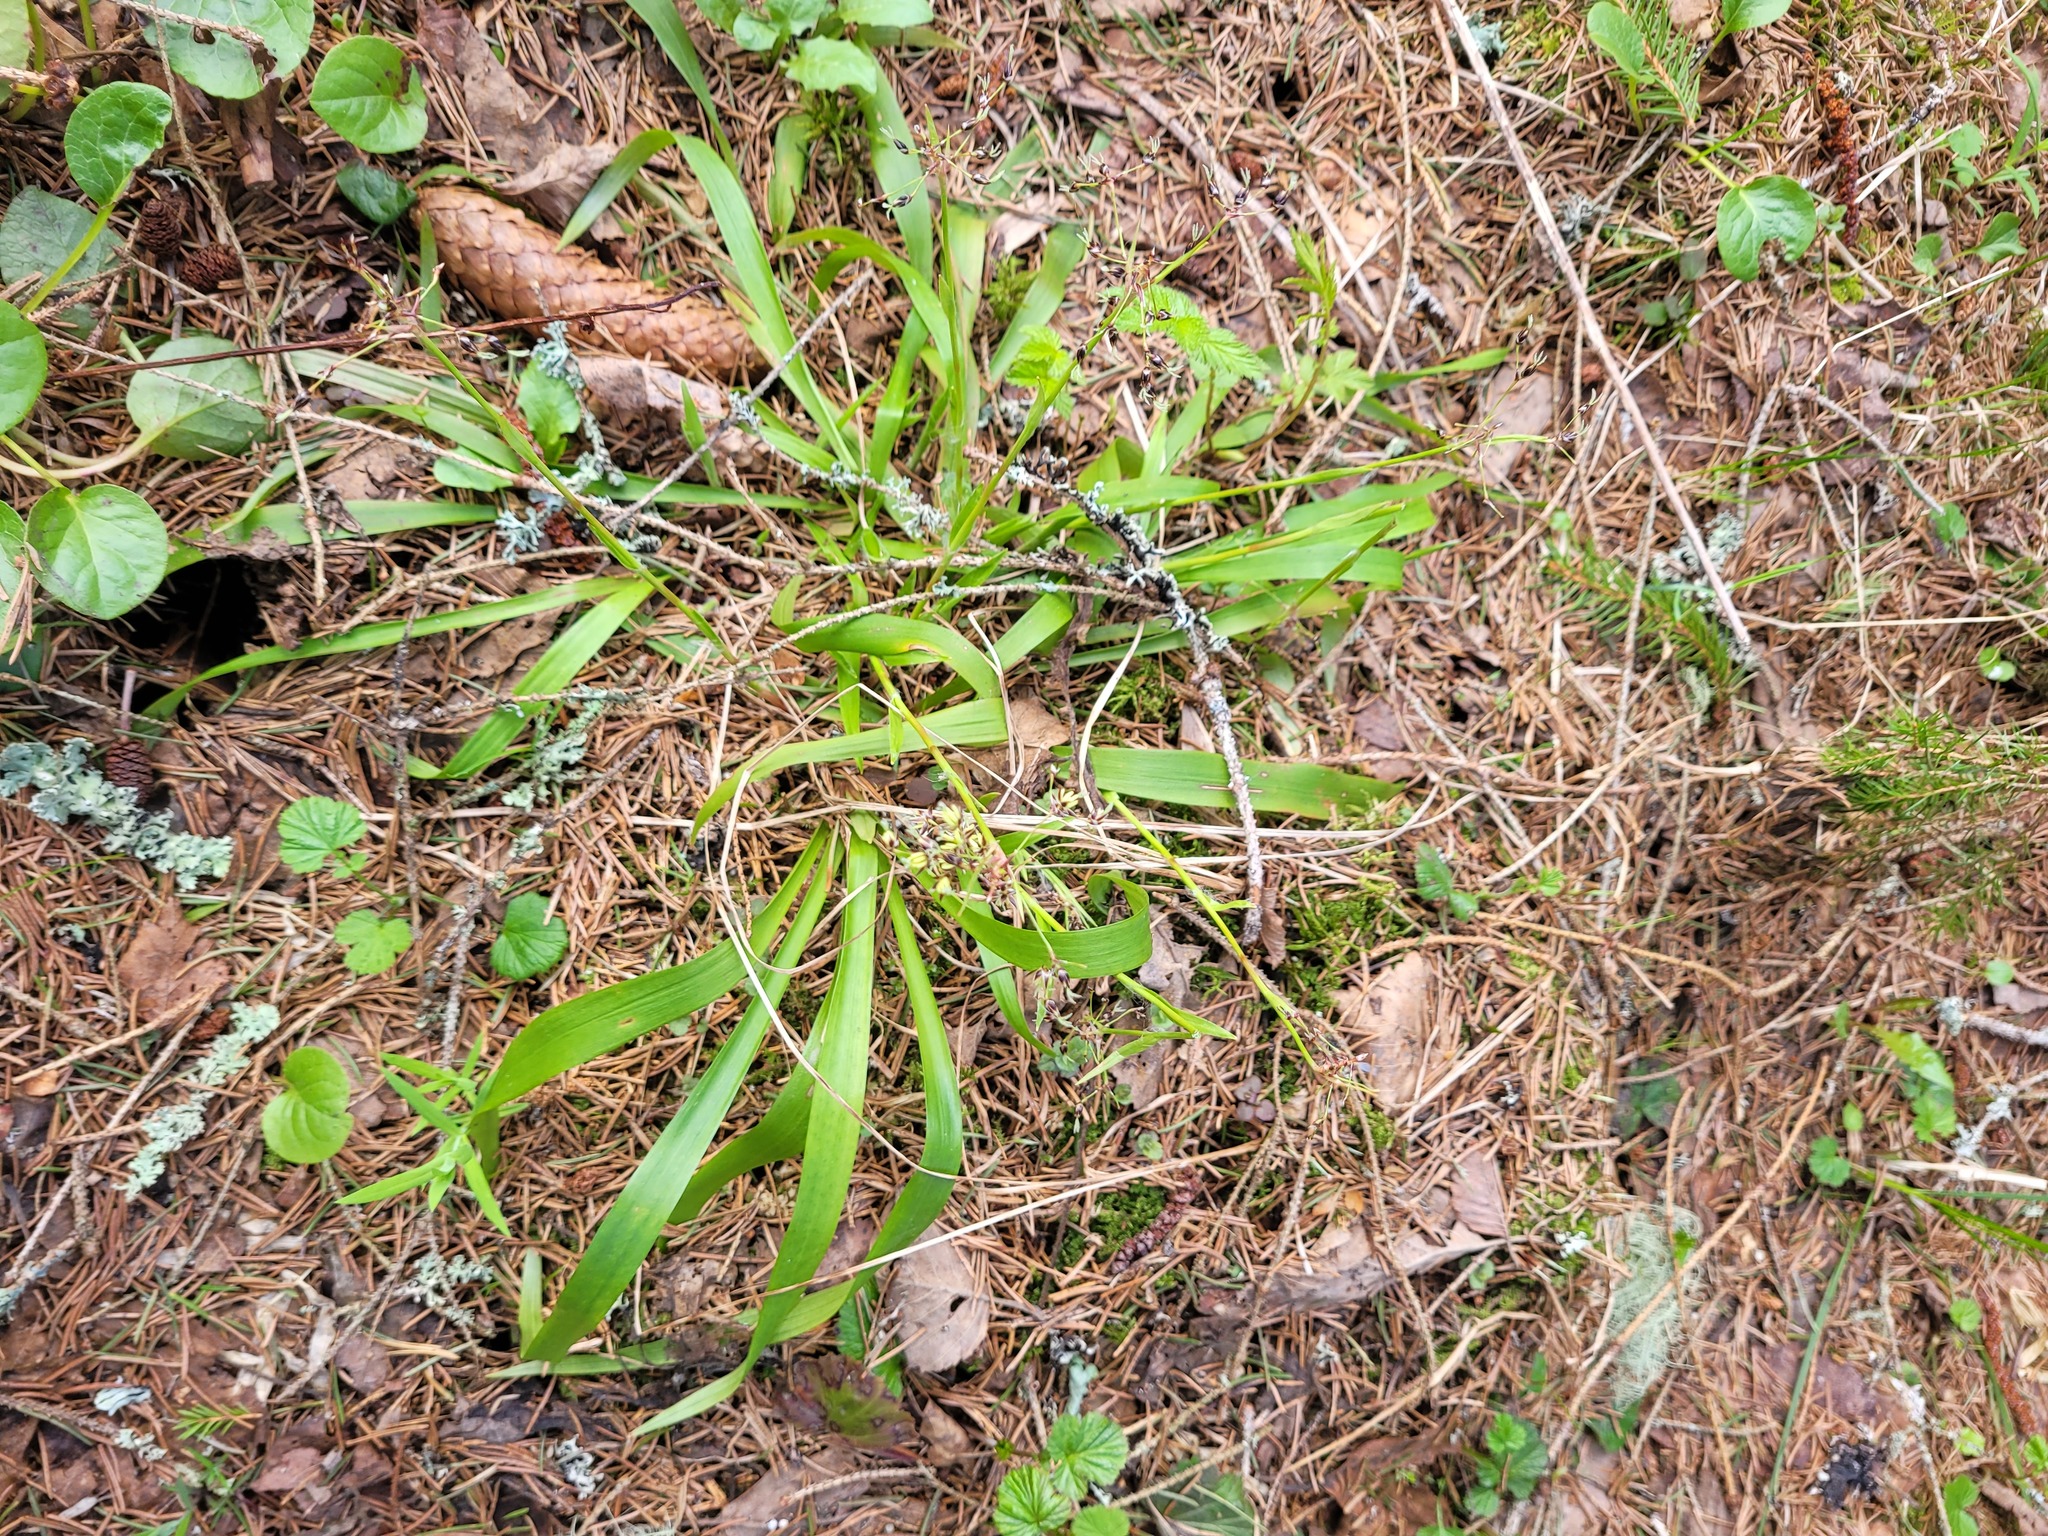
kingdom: Plantae
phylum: Tracheophyta
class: Liliopsida
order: Poales
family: Juncaceae
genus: Luzula
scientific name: Luzula pilosa
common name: Hairy wood-rush
